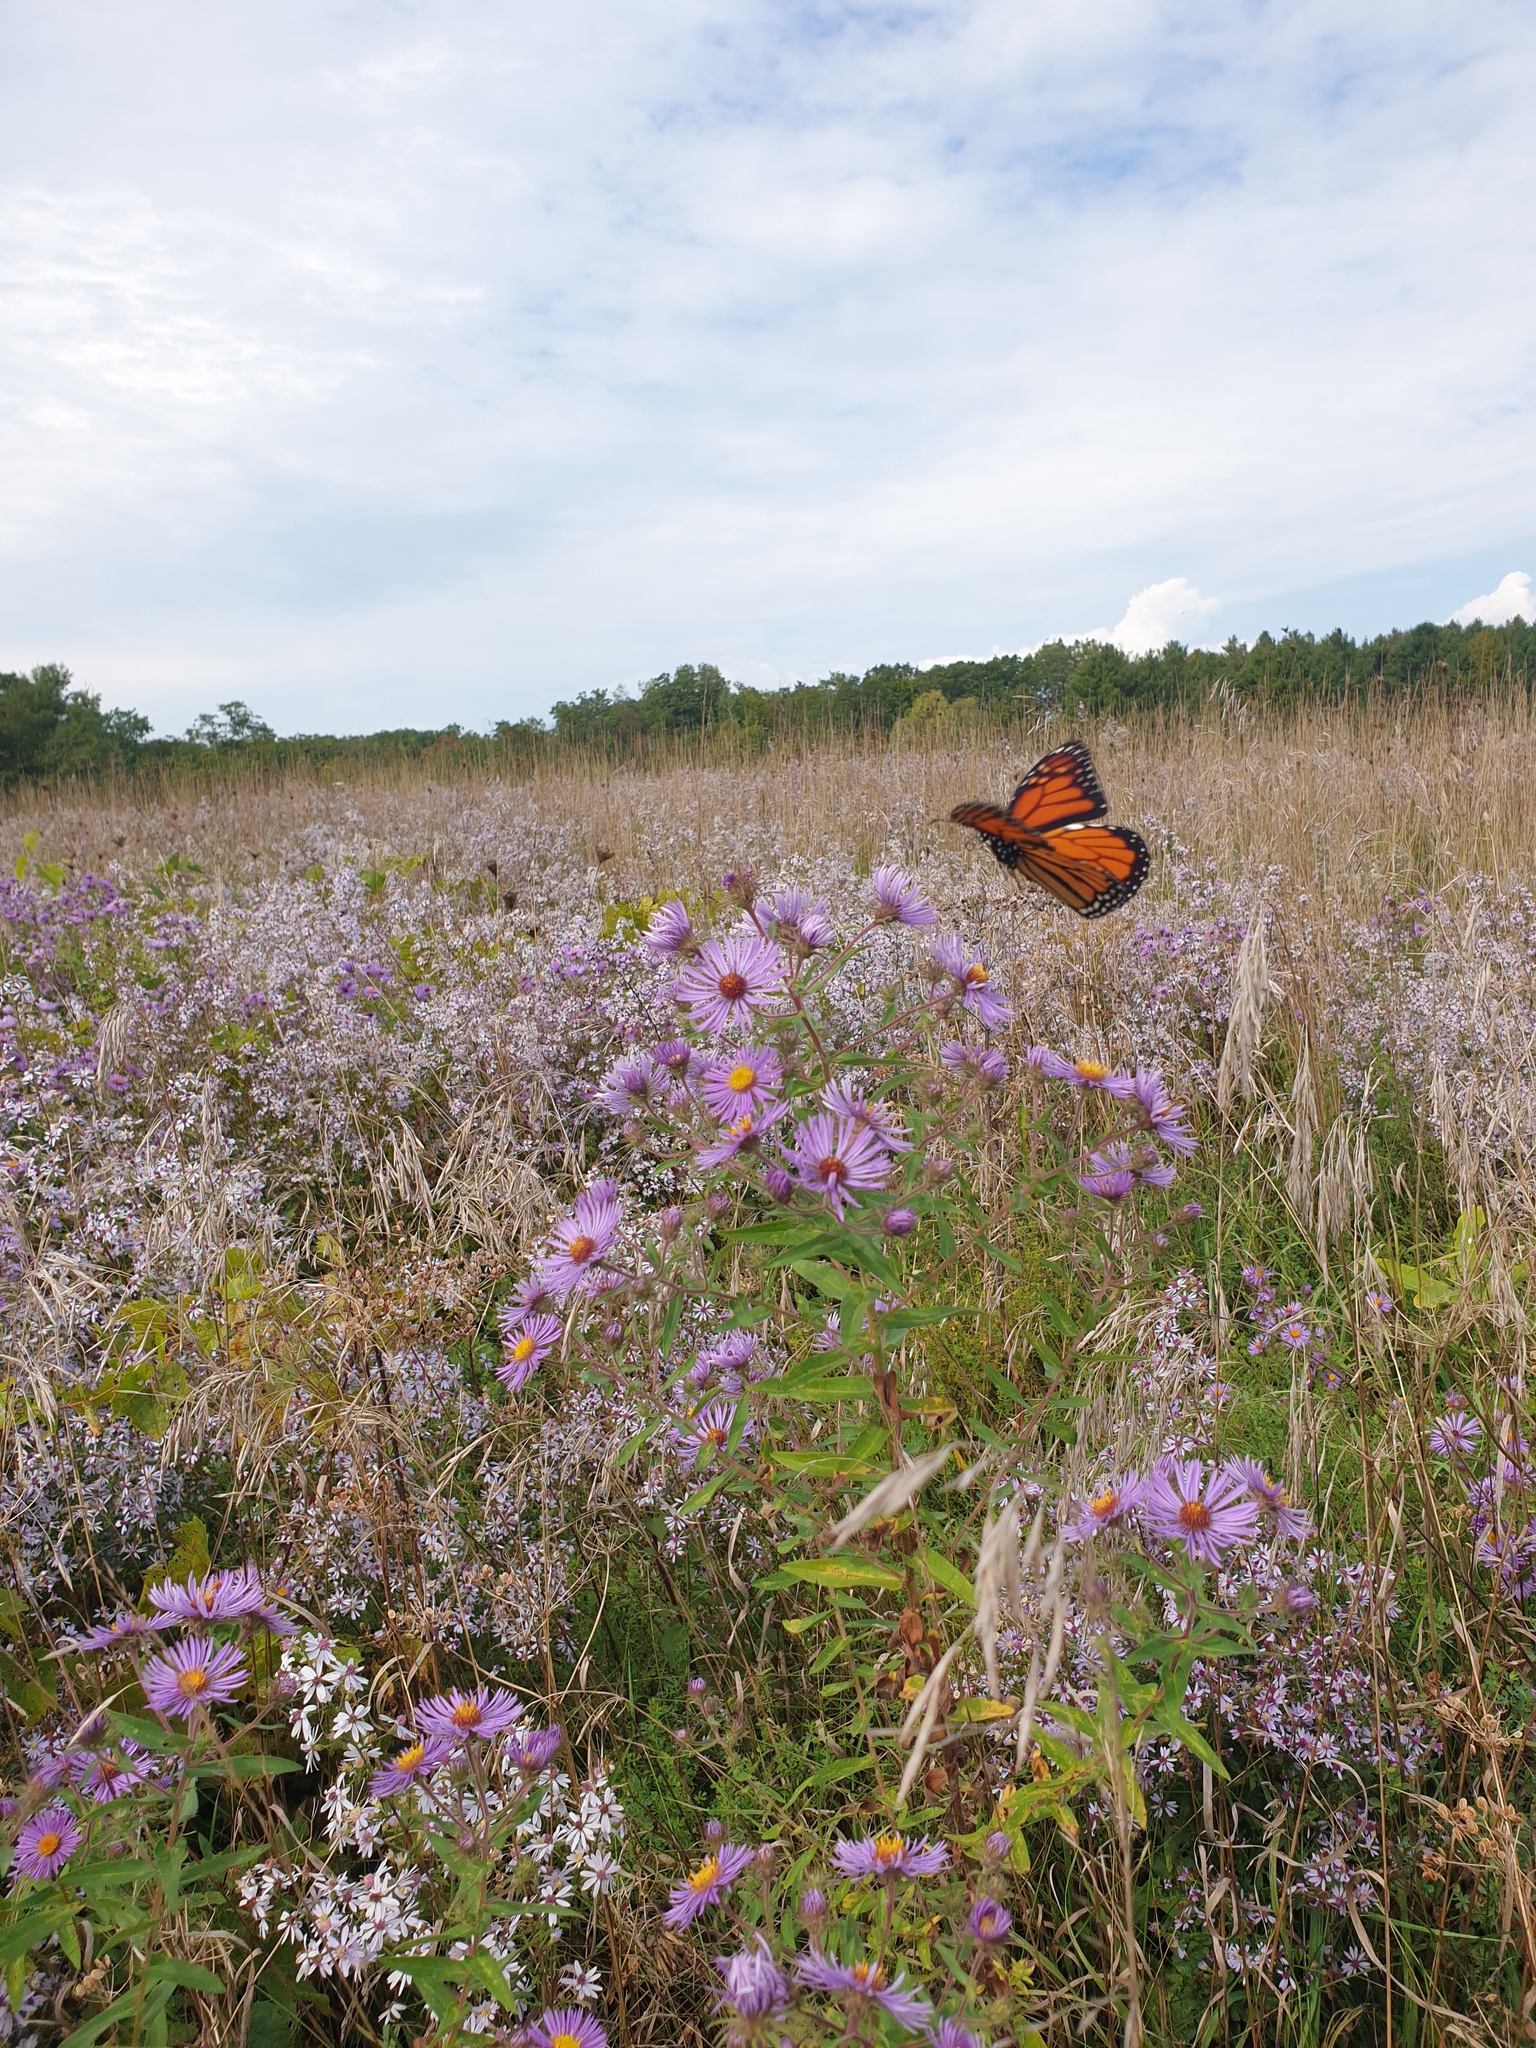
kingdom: Animalia
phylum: Arthropoda
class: Insecta
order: Lepidoptera
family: Nymphalidae
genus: Danaus
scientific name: Danaus plexippus
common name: Monarch
